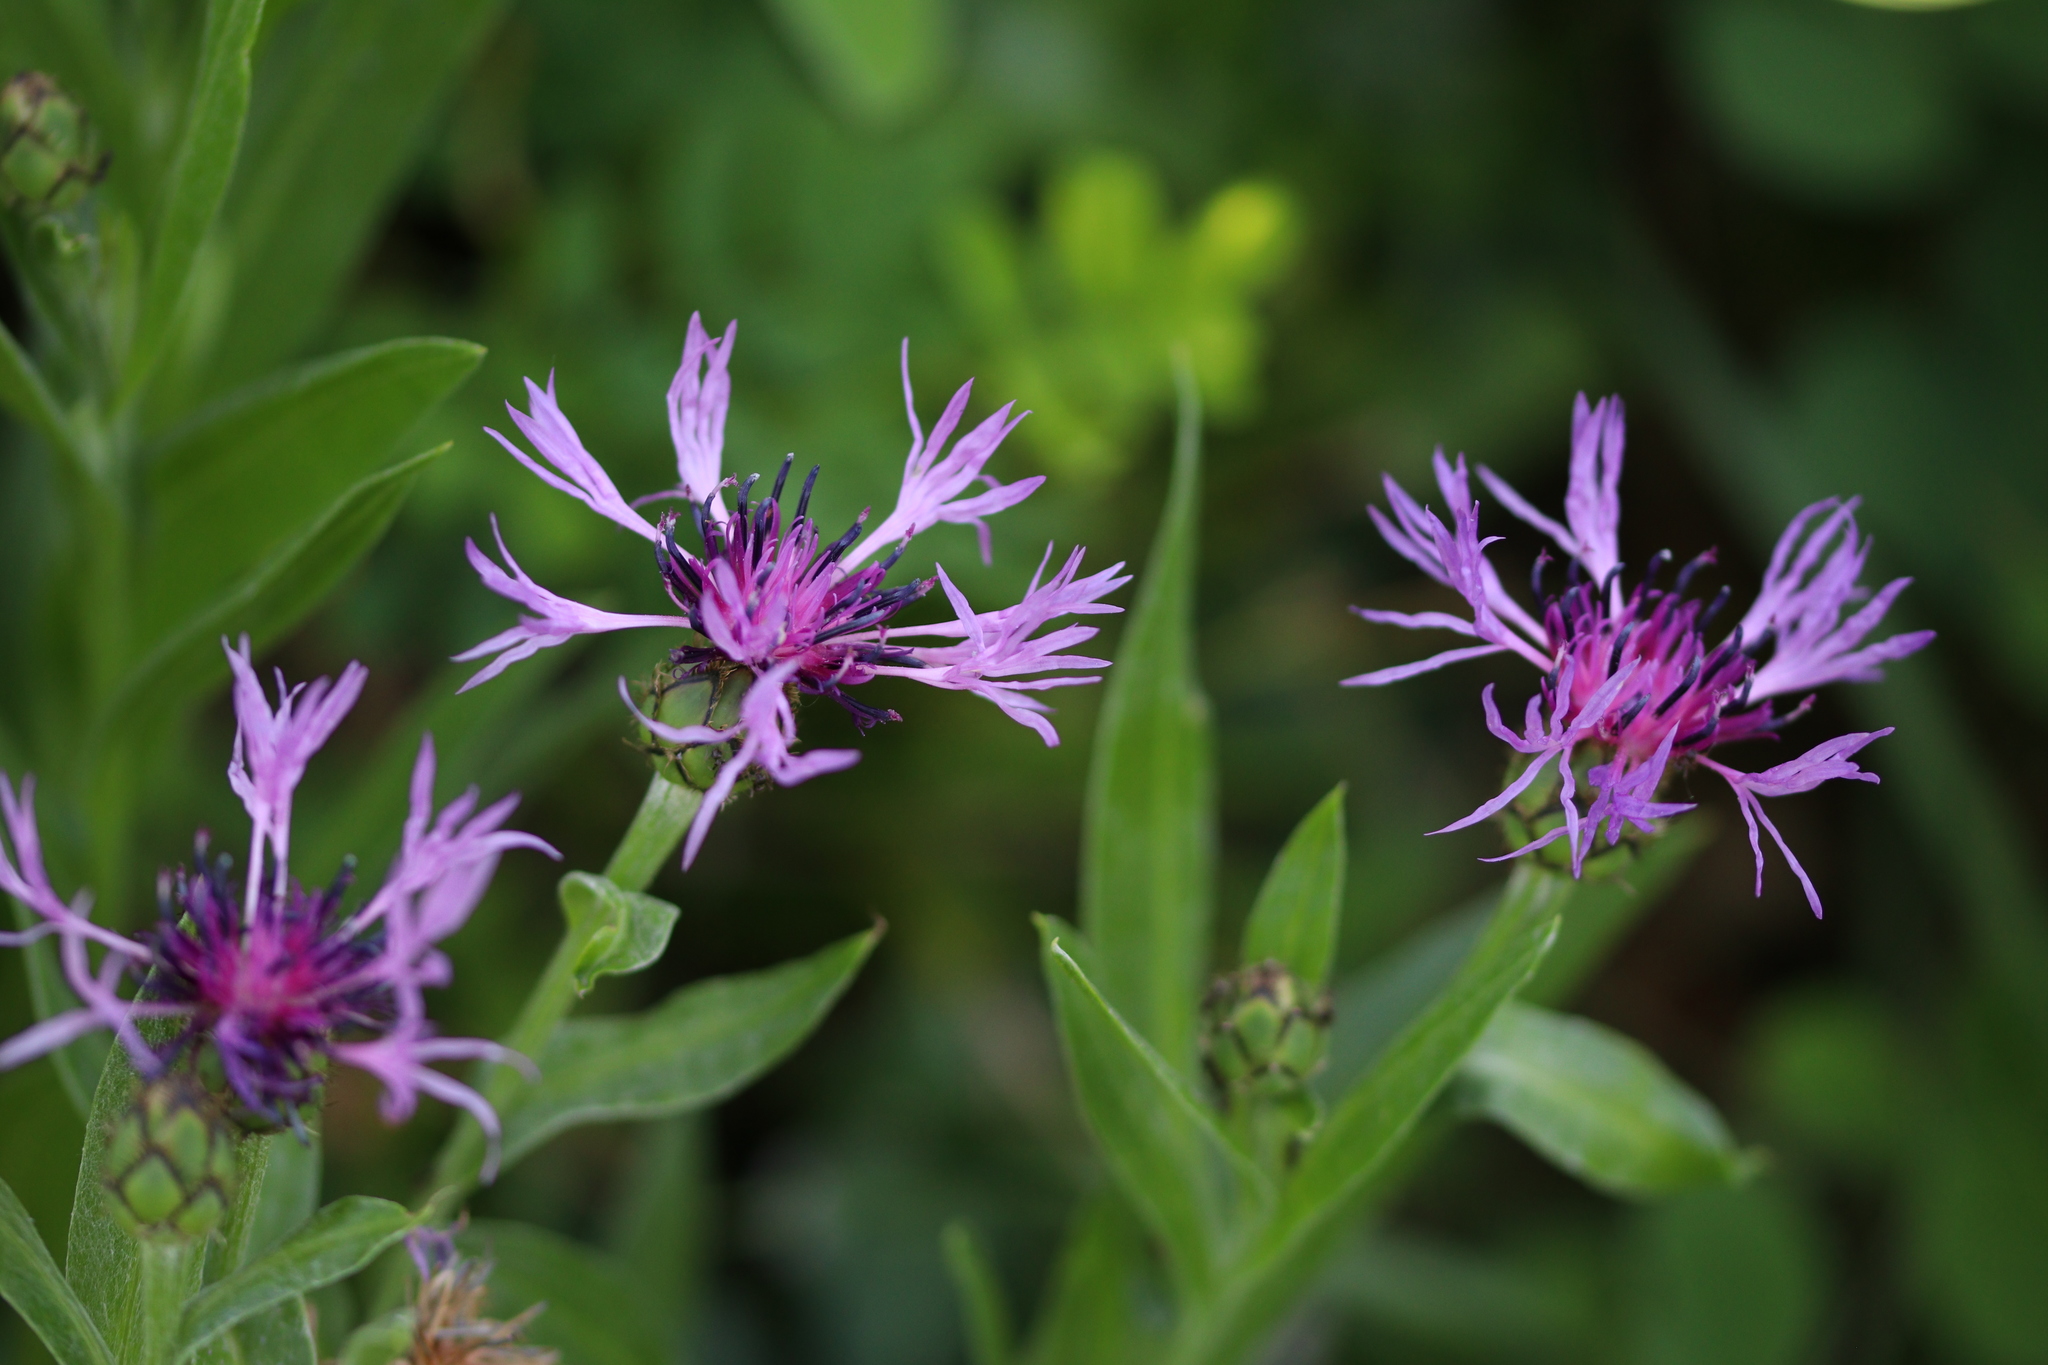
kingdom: Plantae
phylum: Tracheophyta
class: Magnoliopsida
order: Asterales
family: Asteraceae
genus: Centaurea
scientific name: Centaurea triumfettii
